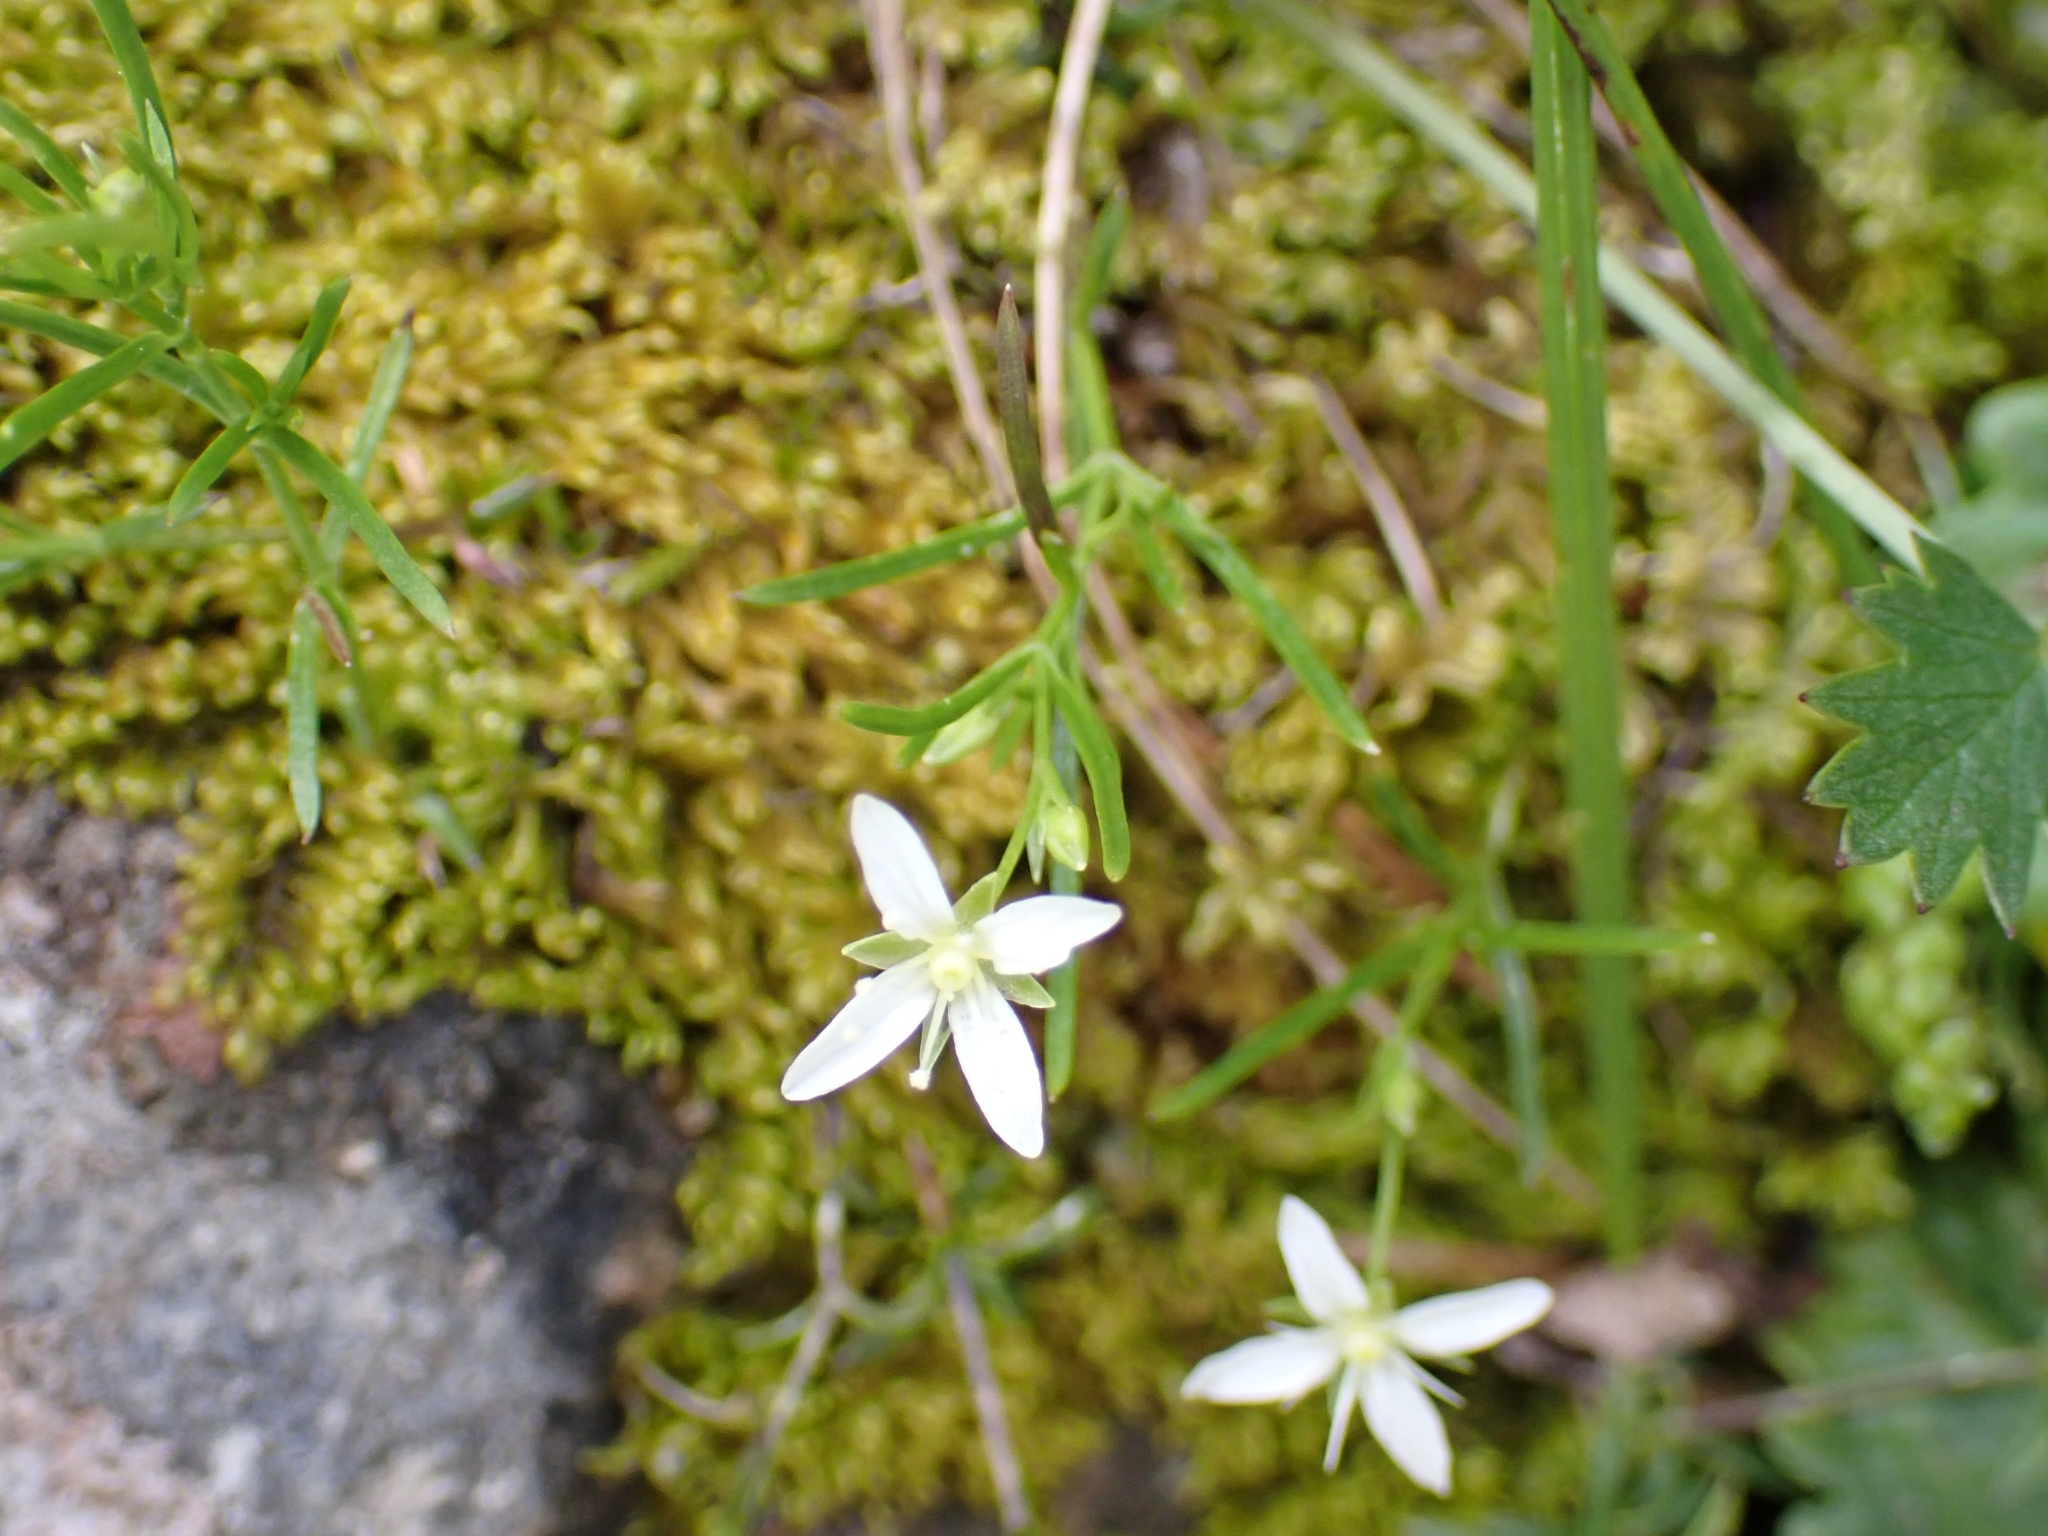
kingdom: Plantae
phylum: Tracheophyta
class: Magnoliopsida
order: Caryophyllales
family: Caryophyllaceae
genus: Moehringia
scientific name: Moehringia muscosa
